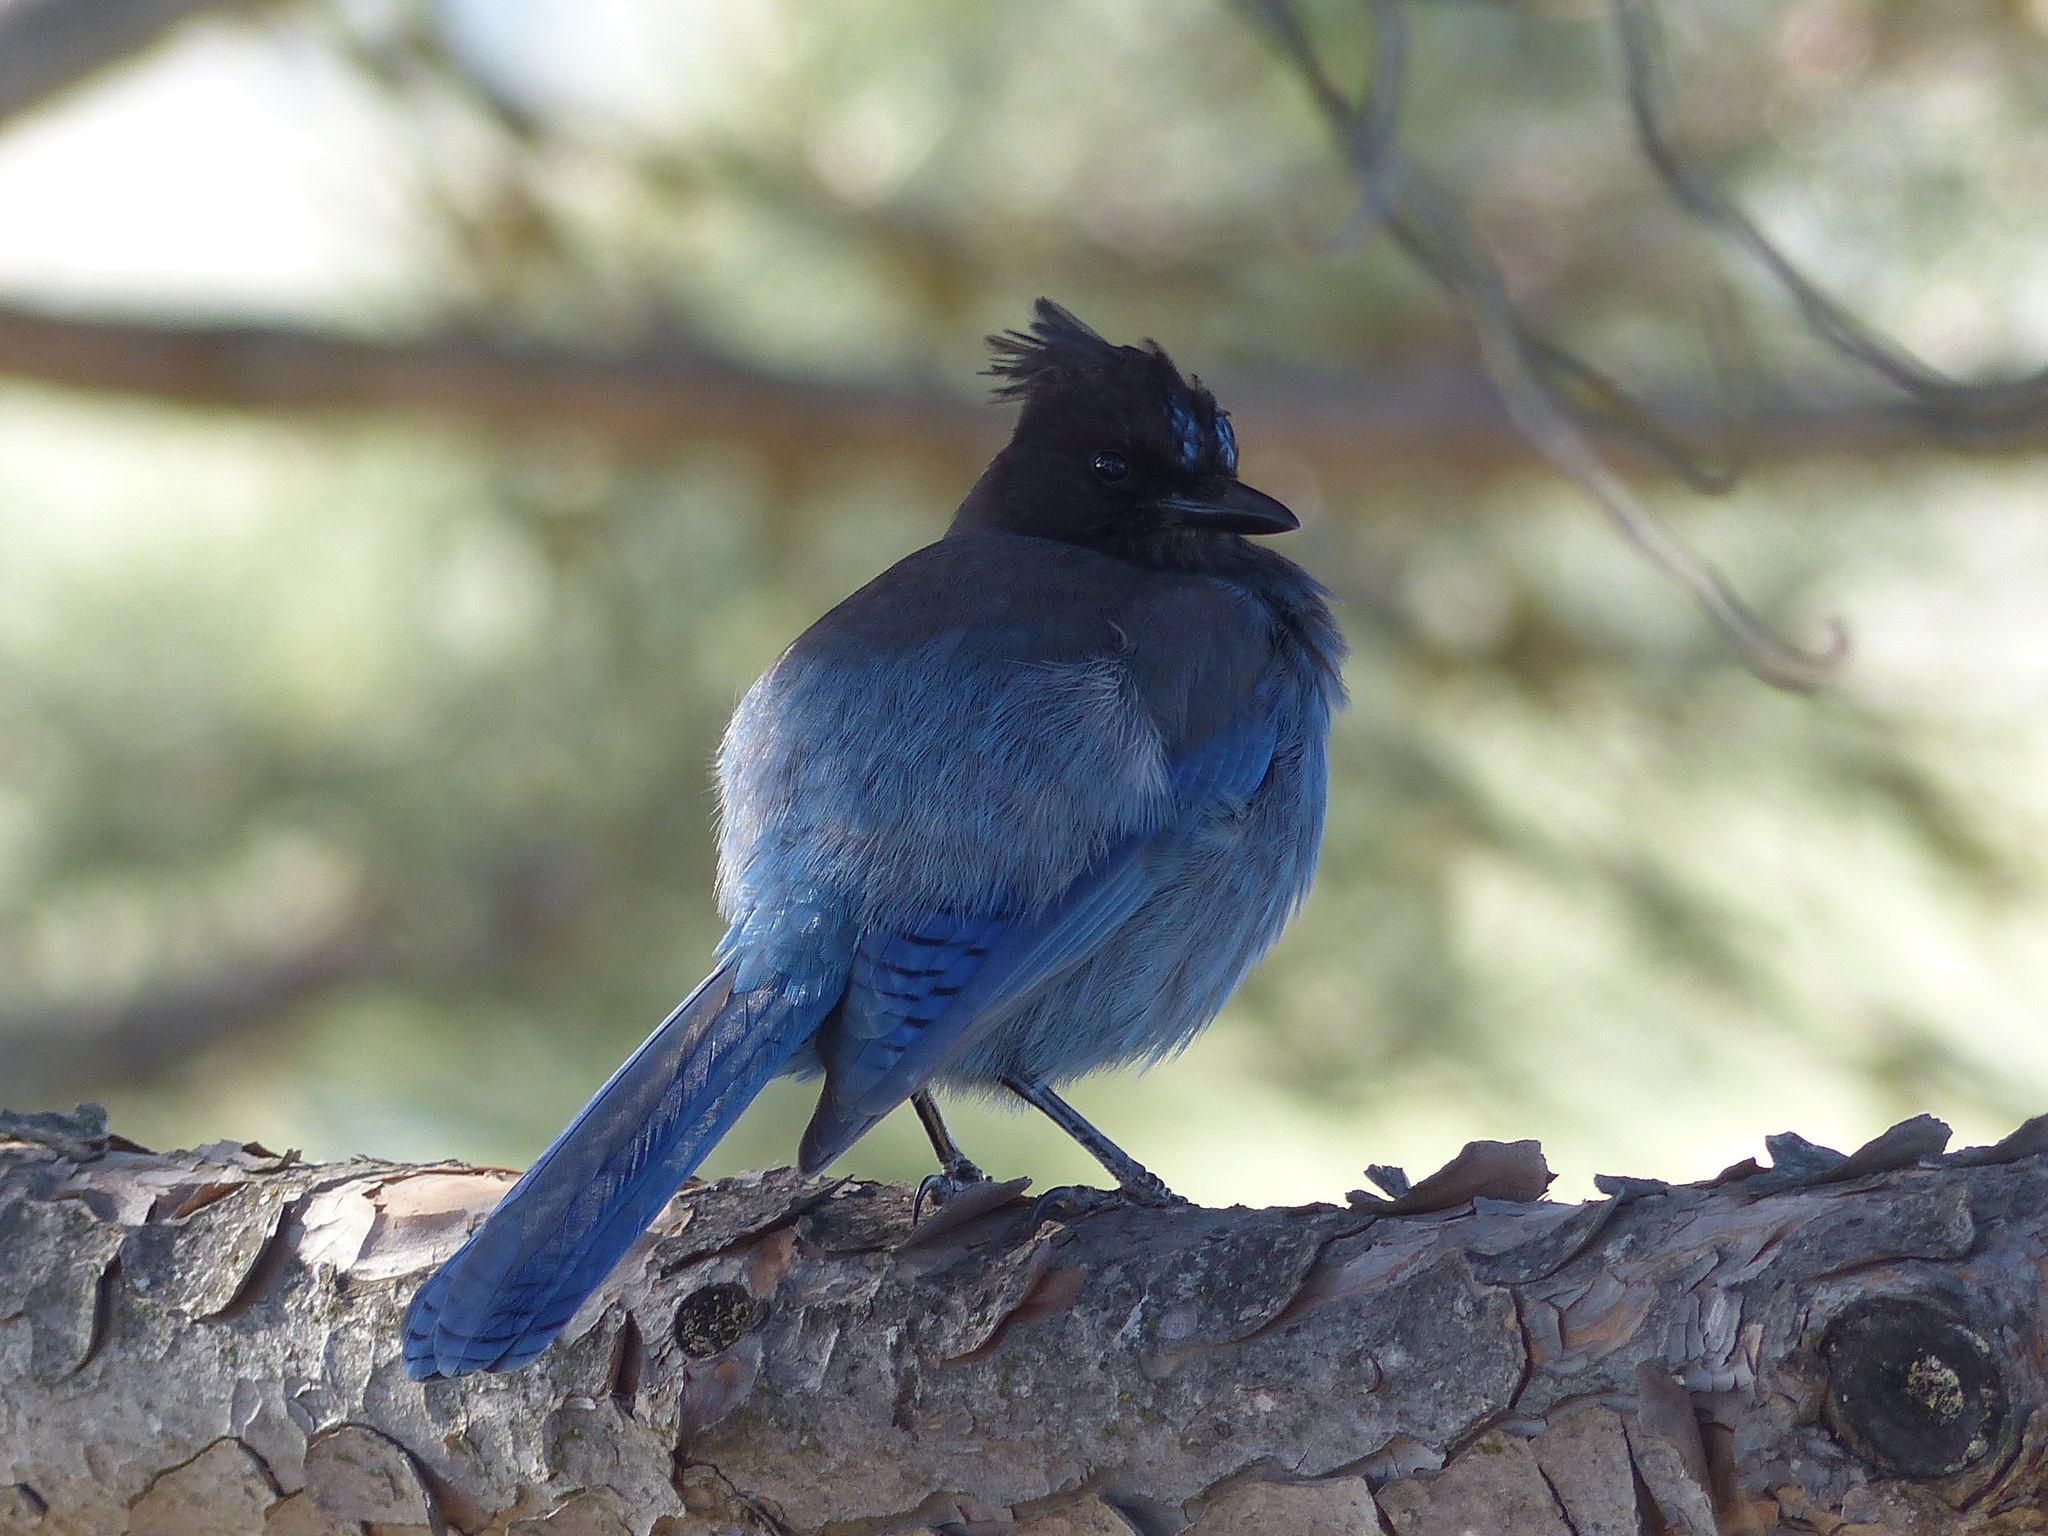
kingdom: Animalia
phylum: Chordata
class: Aves
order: Passeriformes
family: Corvidae
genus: Cyanocitta
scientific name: Cyanocitta stelleri
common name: Steller's jay
